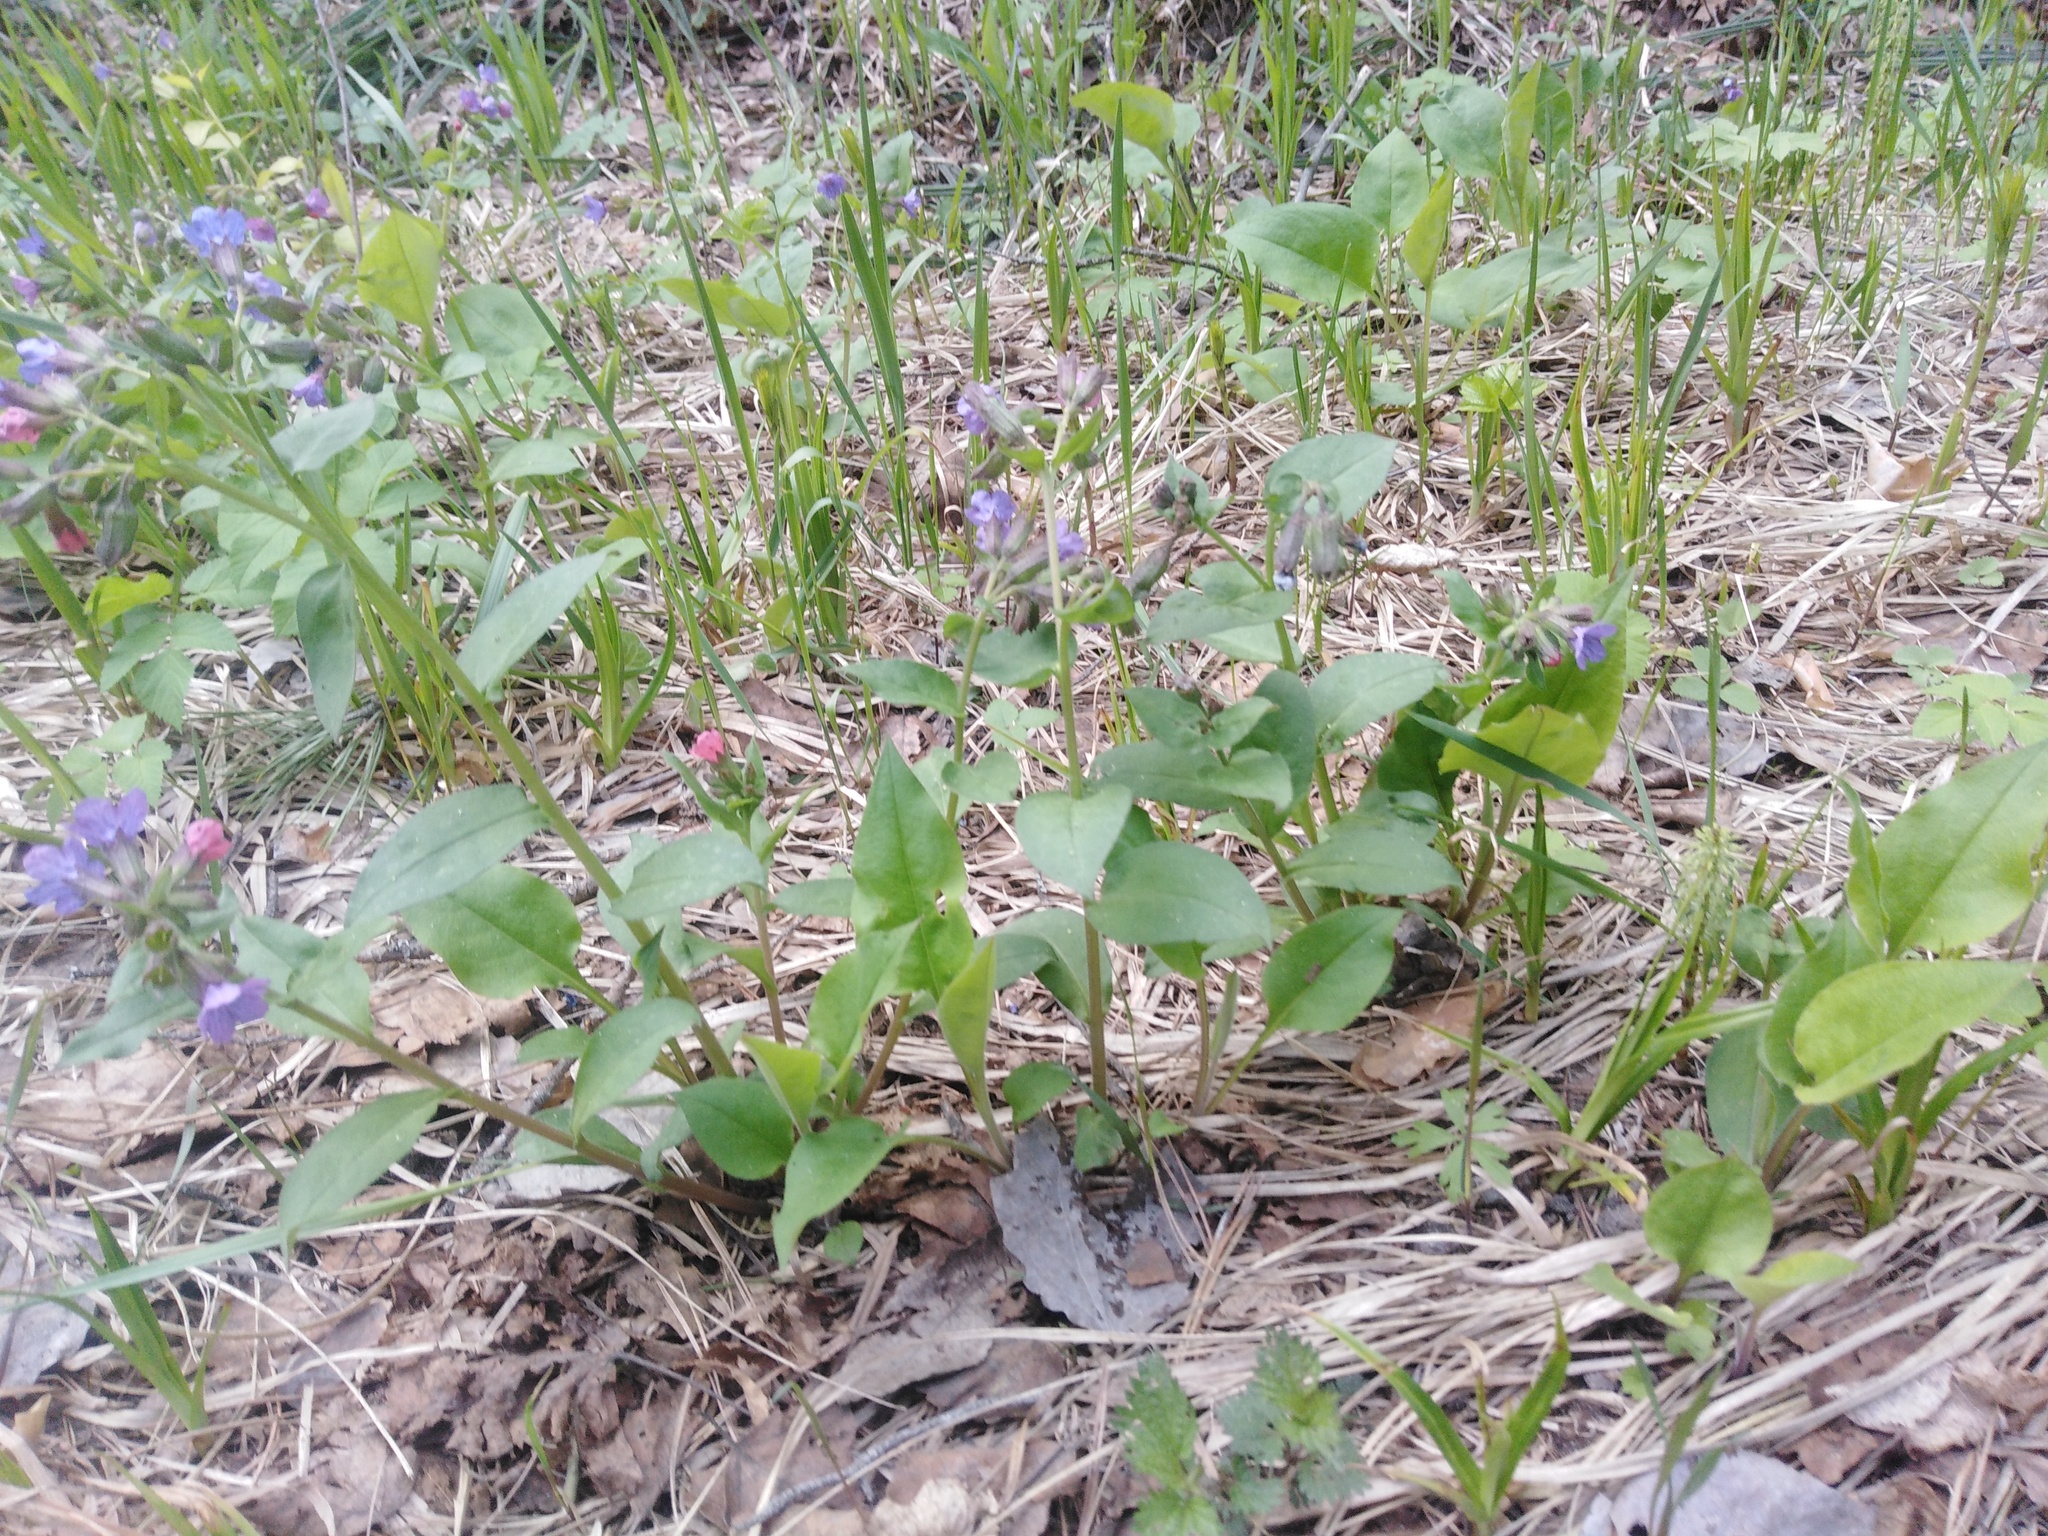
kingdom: Plantae
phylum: Tracheophyta
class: Magnoliopsida
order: Boraginales
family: Boraginaceae
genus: Pulmonaria
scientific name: Pulmonaria obscura
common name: Suffolk lungwort
